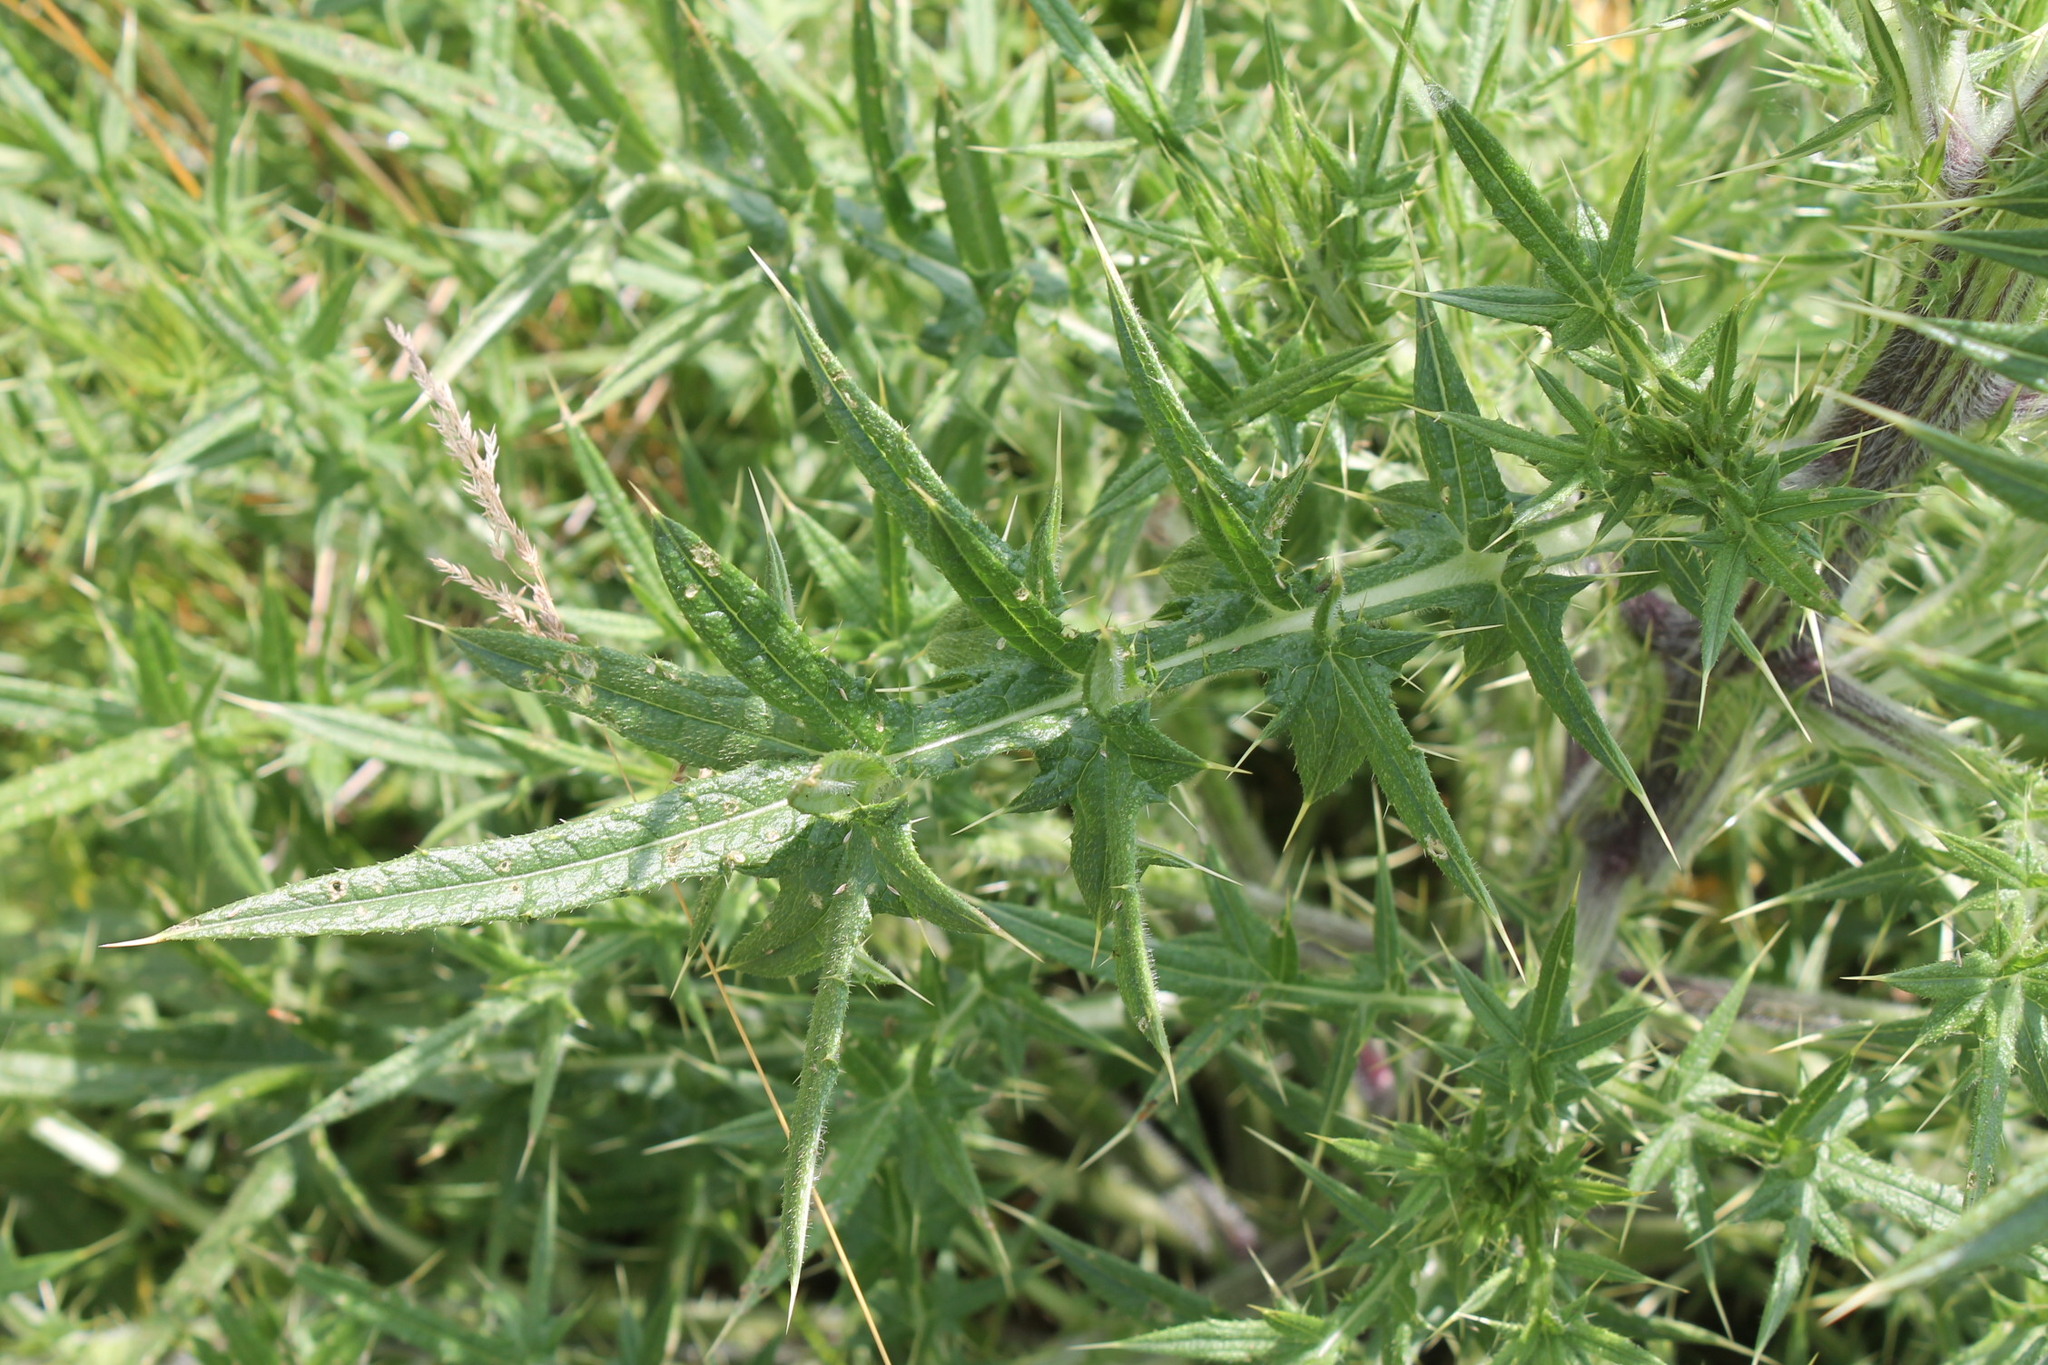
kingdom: Plantae
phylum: Tracheophyta
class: Magnoliopsida
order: Asterales
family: Asteraceae
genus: Cirsium
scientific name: Cirsium vulgare
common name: Bull thistle
